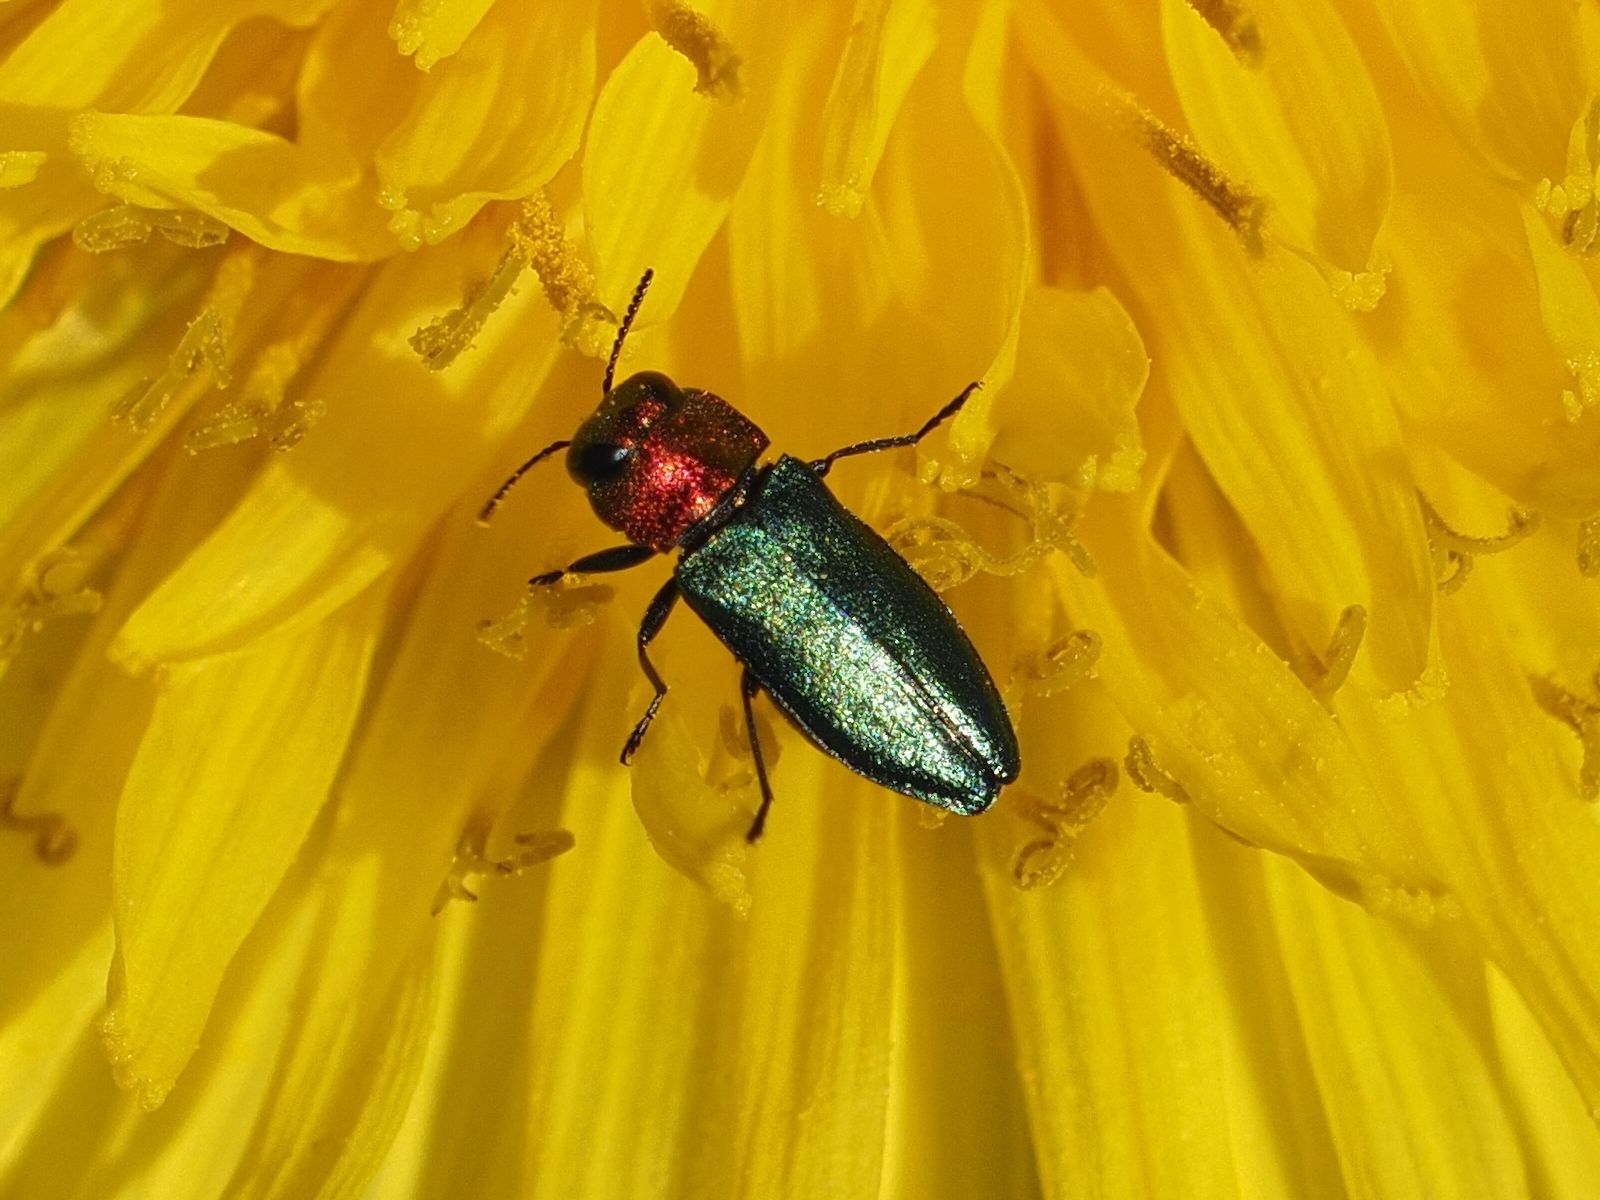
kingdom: Animalia
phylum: Arthropoda
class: Insecta
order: Coleoptera
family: Buprestidae
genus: Anthaxia
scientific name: Anthaxia nitidula
